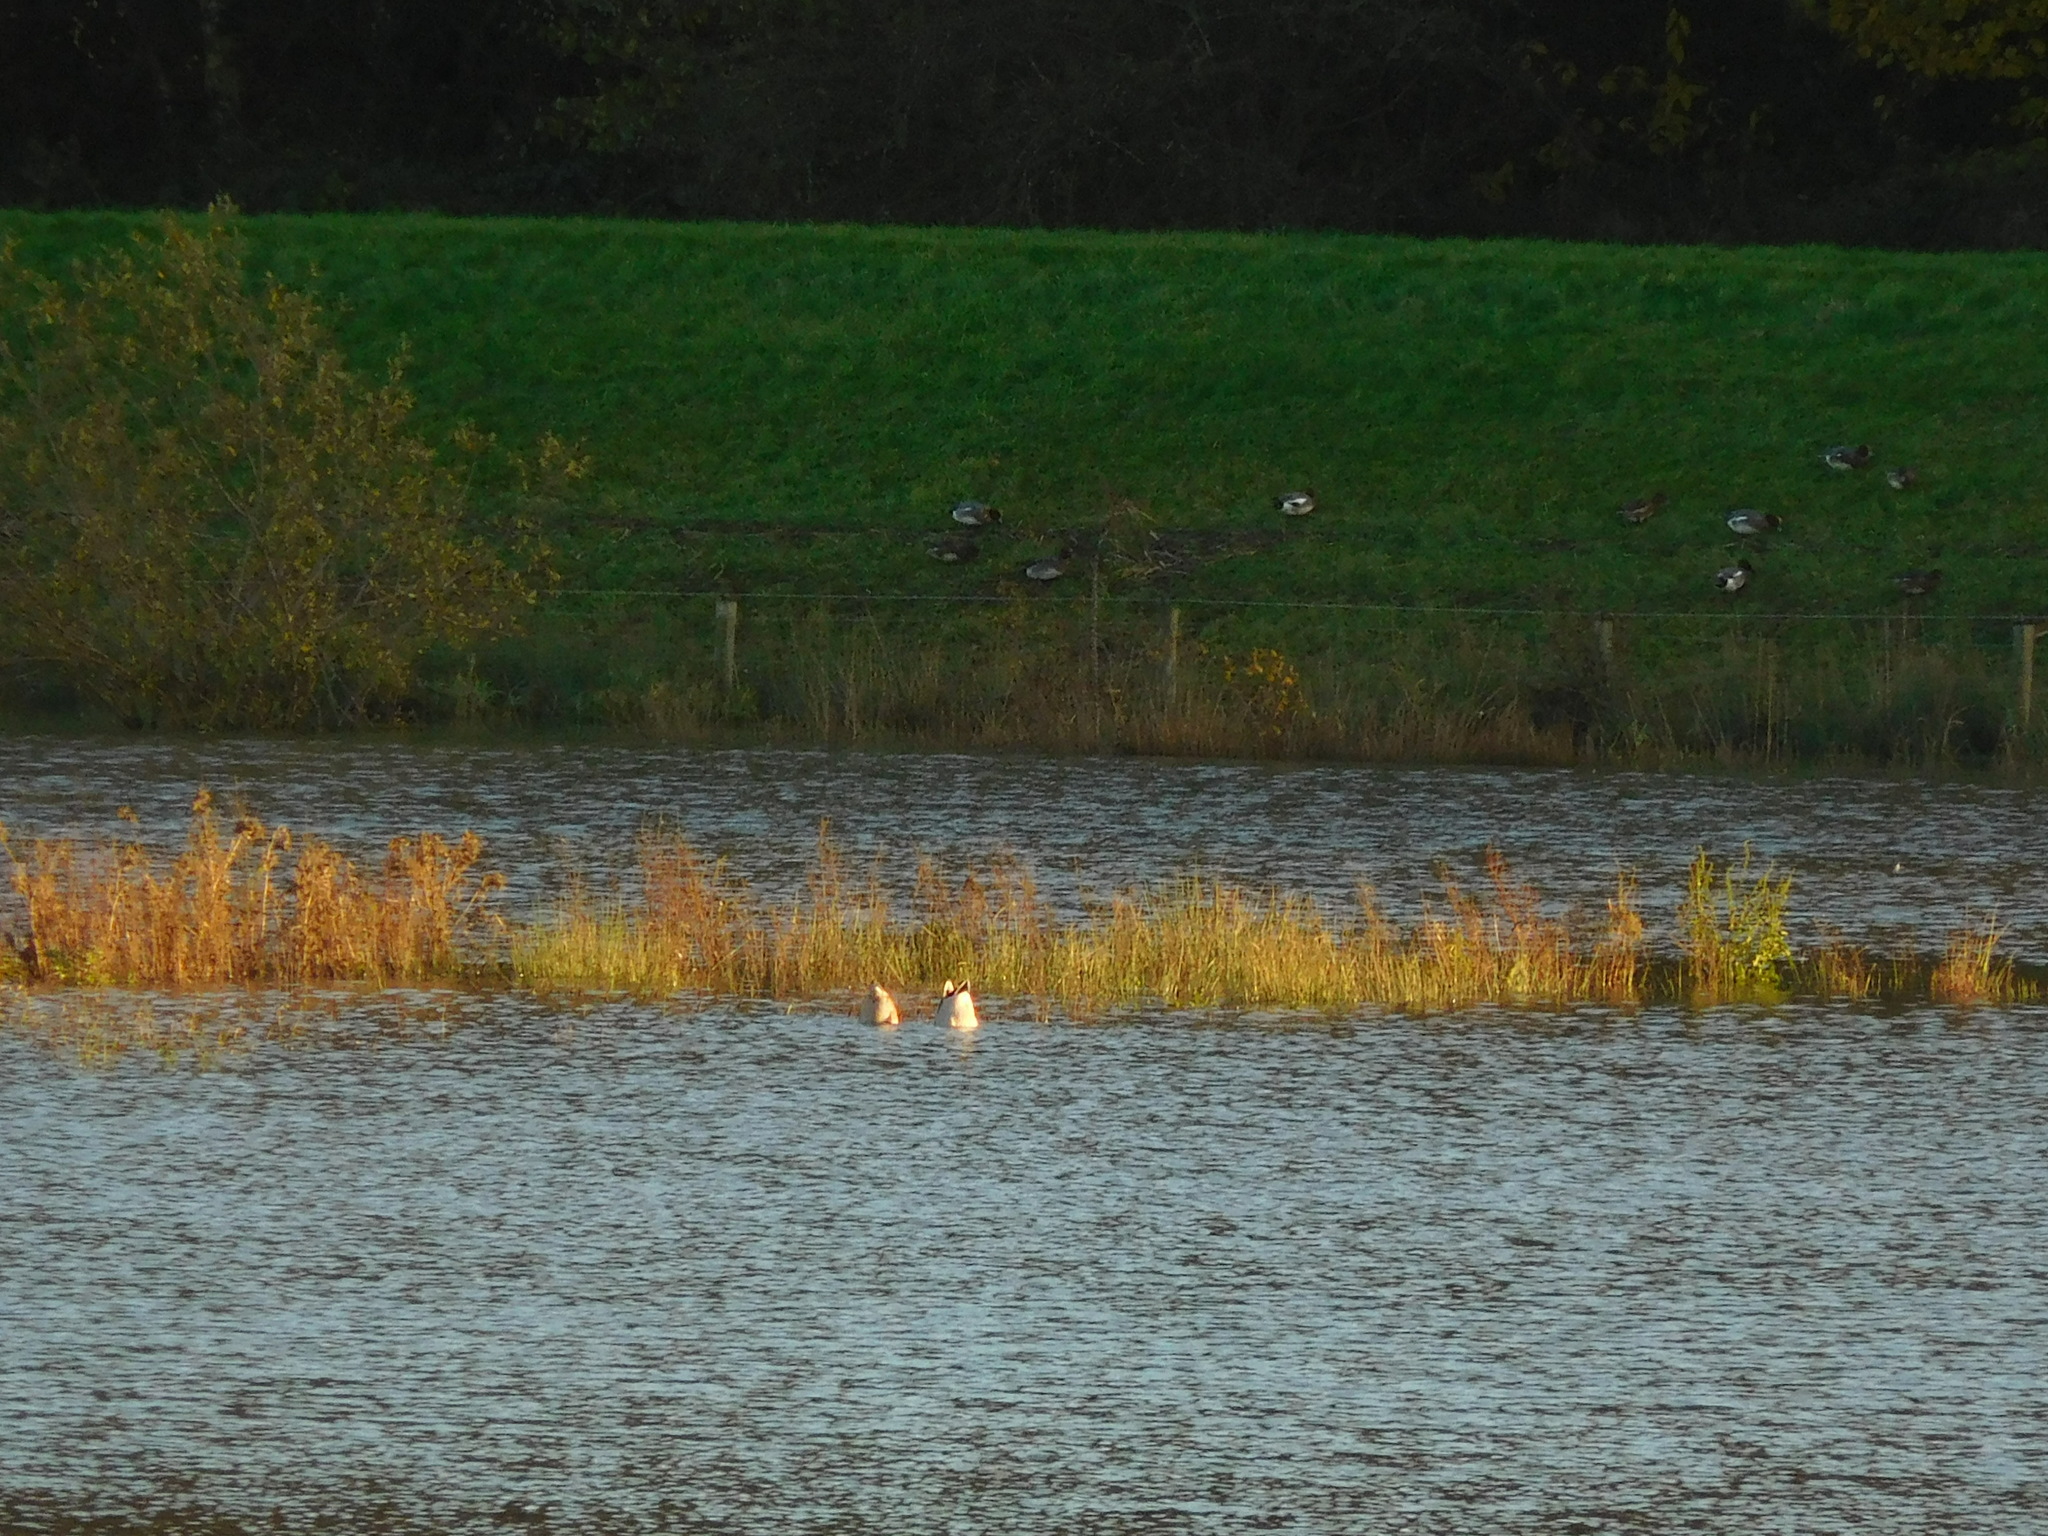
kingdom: Animalia
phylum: Chordata
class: Aves
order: Anseriformes
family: Anatidae
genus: Mareca
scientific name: Mareca penelope
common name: Eurasian wigeon
